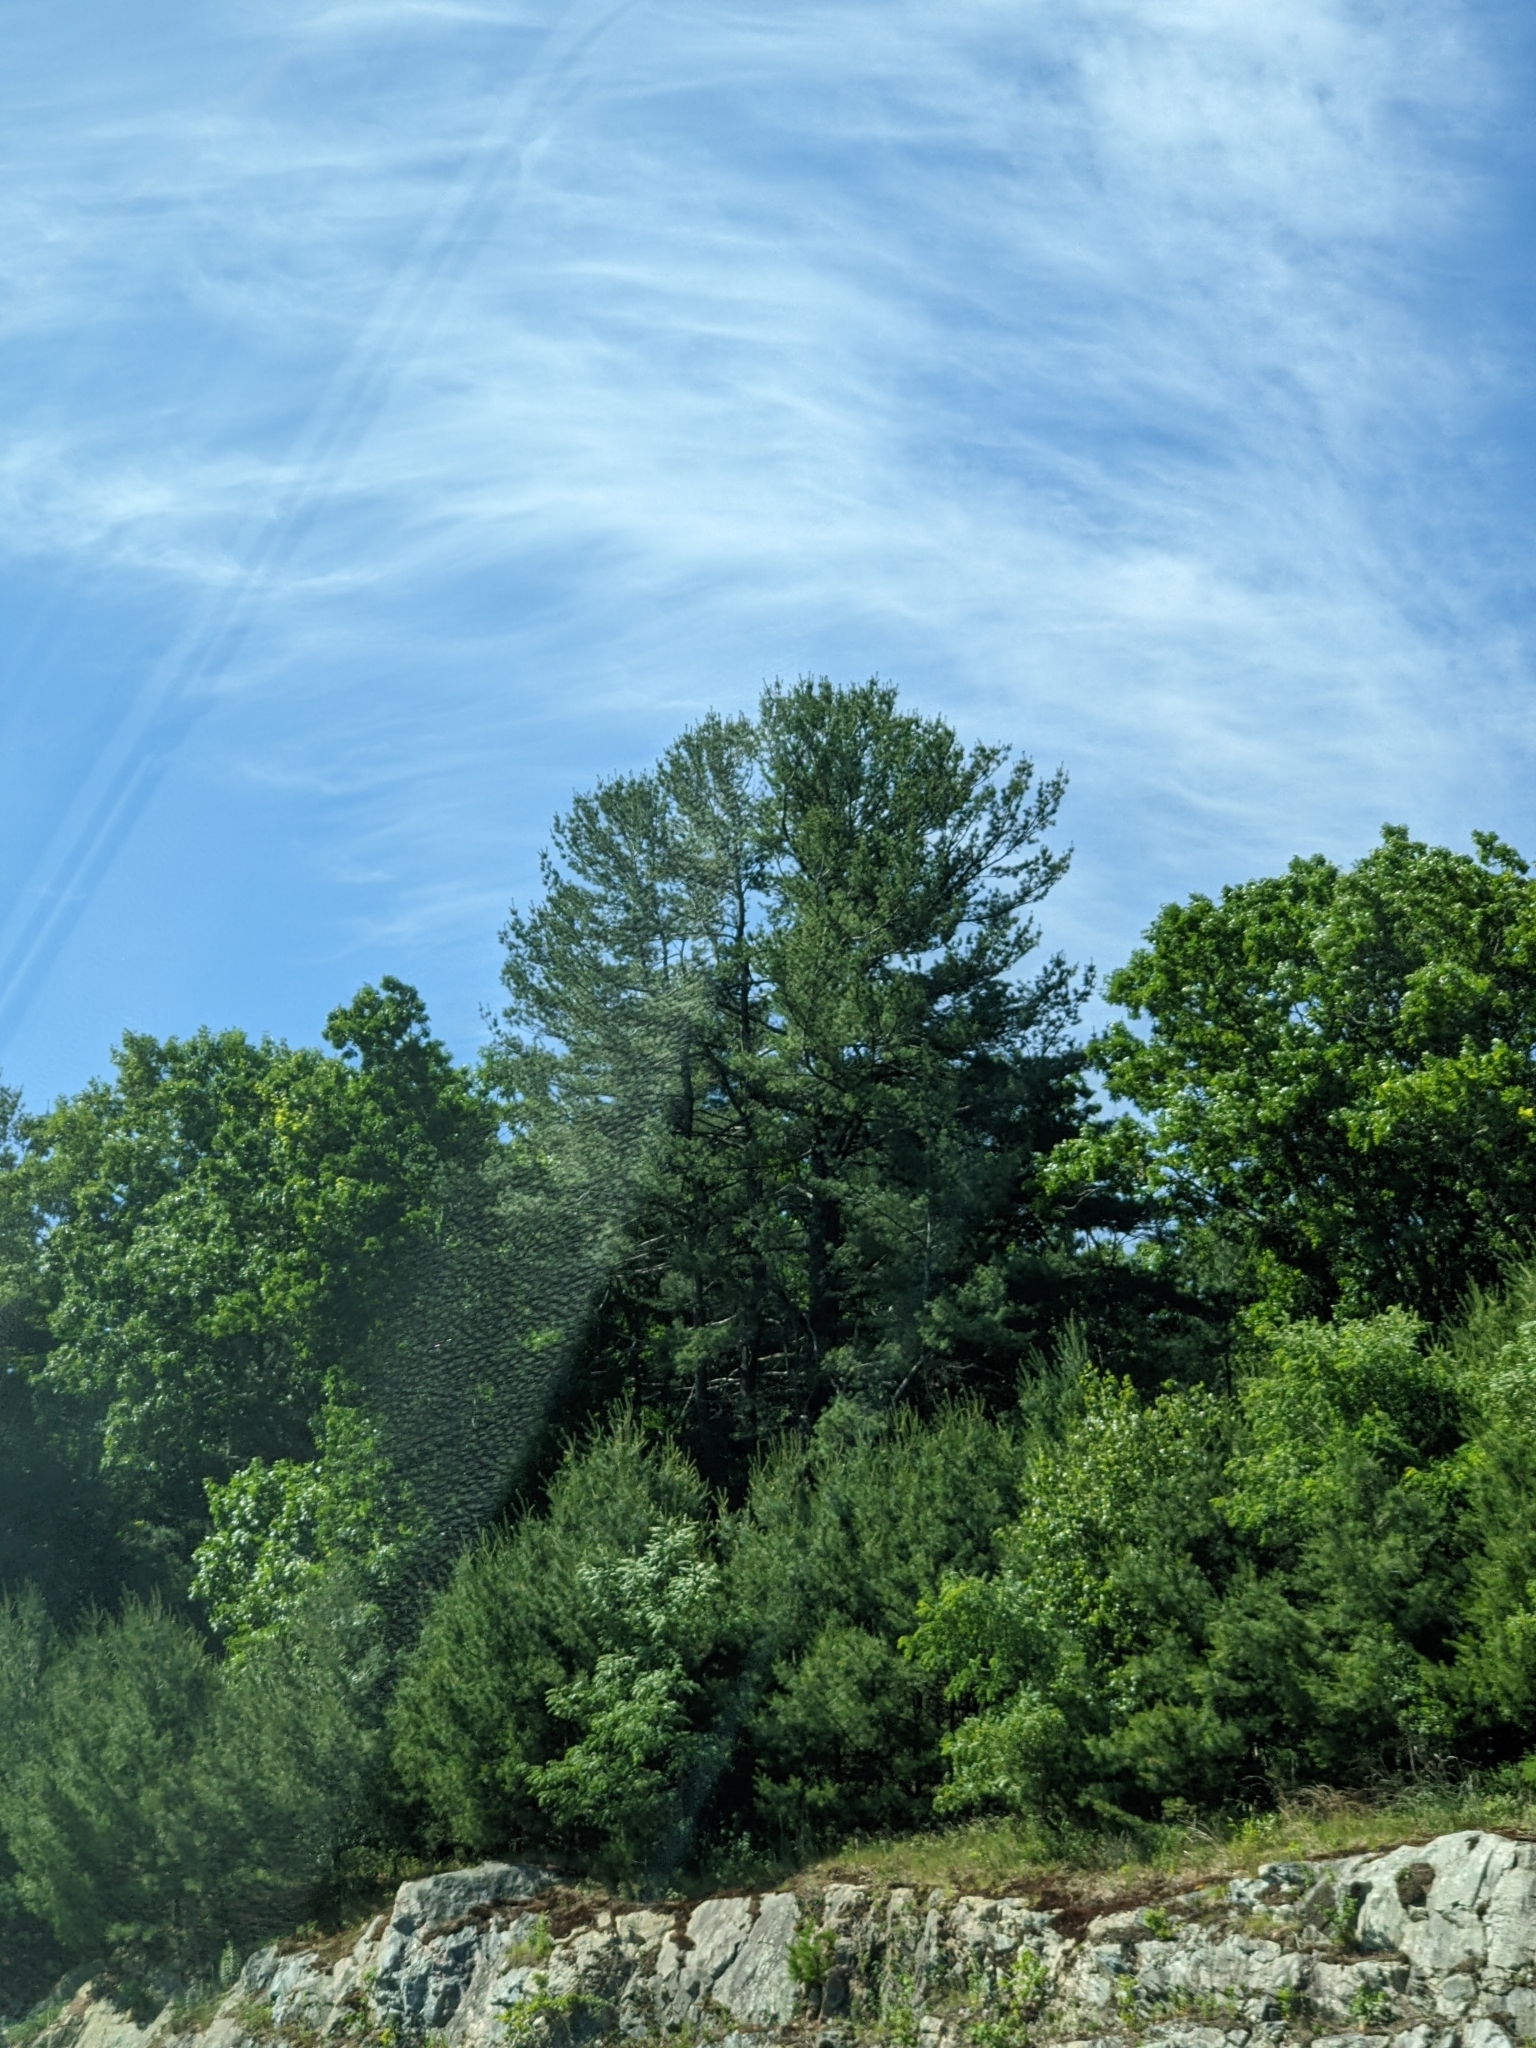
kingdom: Plantae
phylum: Tracheophyta
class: Pinopsida
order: Pinales
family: Pinaceae
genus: Pinus
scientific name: Pinus strobus
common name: Weymouth pine
